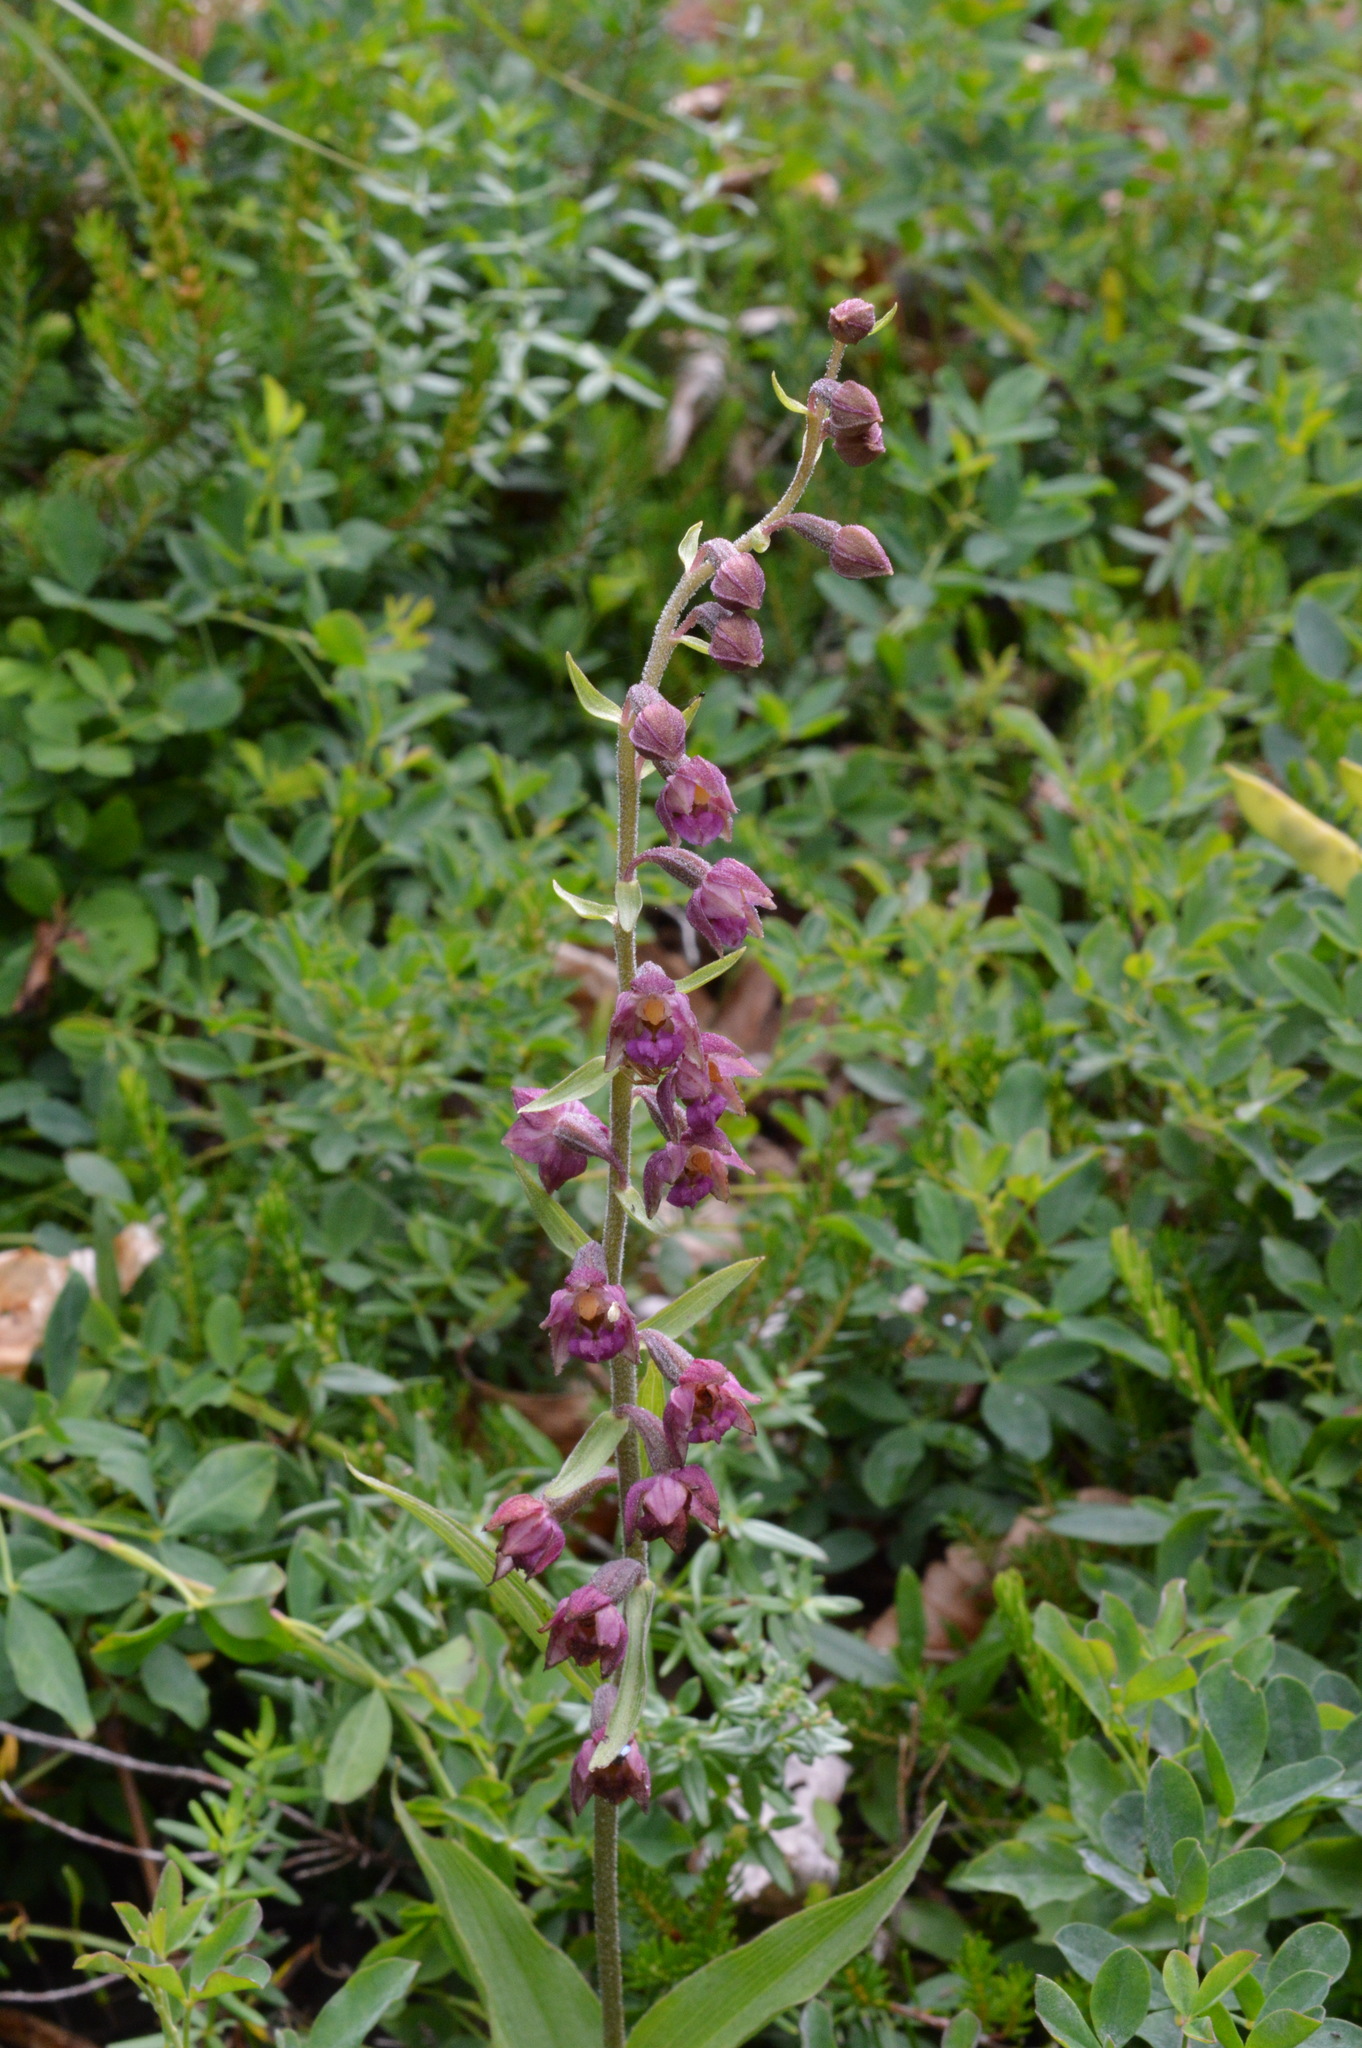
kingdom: Plantae
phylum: Tracheophyta
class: Liliopsida
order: Asparagales
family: Orchidaceae
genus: Epipactis
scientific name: Epipactis atrorubens
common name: Dark-red helleborine
